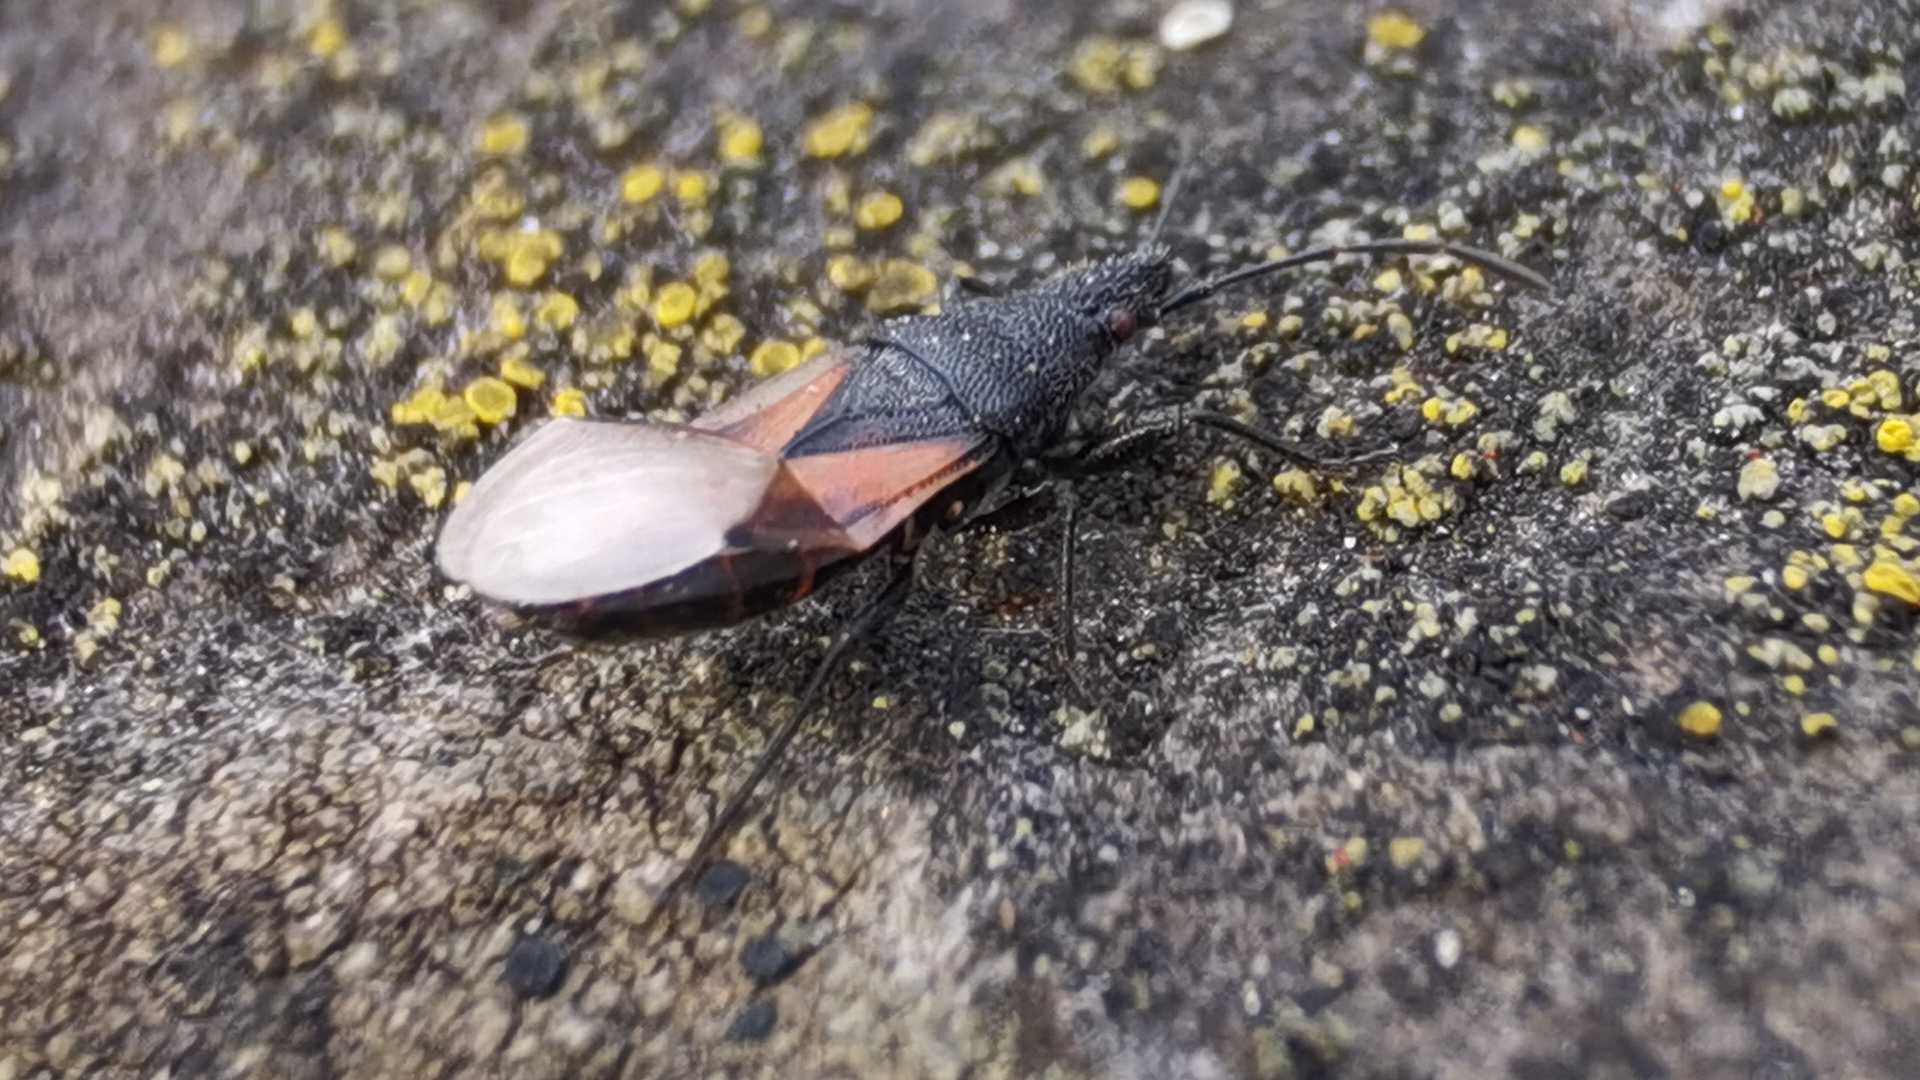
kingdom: Animalia
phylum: Arthropoda
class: Insecta
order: Hemiptera
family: Oxycarenidae
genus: Oxycarenus
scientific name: Oxycarenus lavaterae
